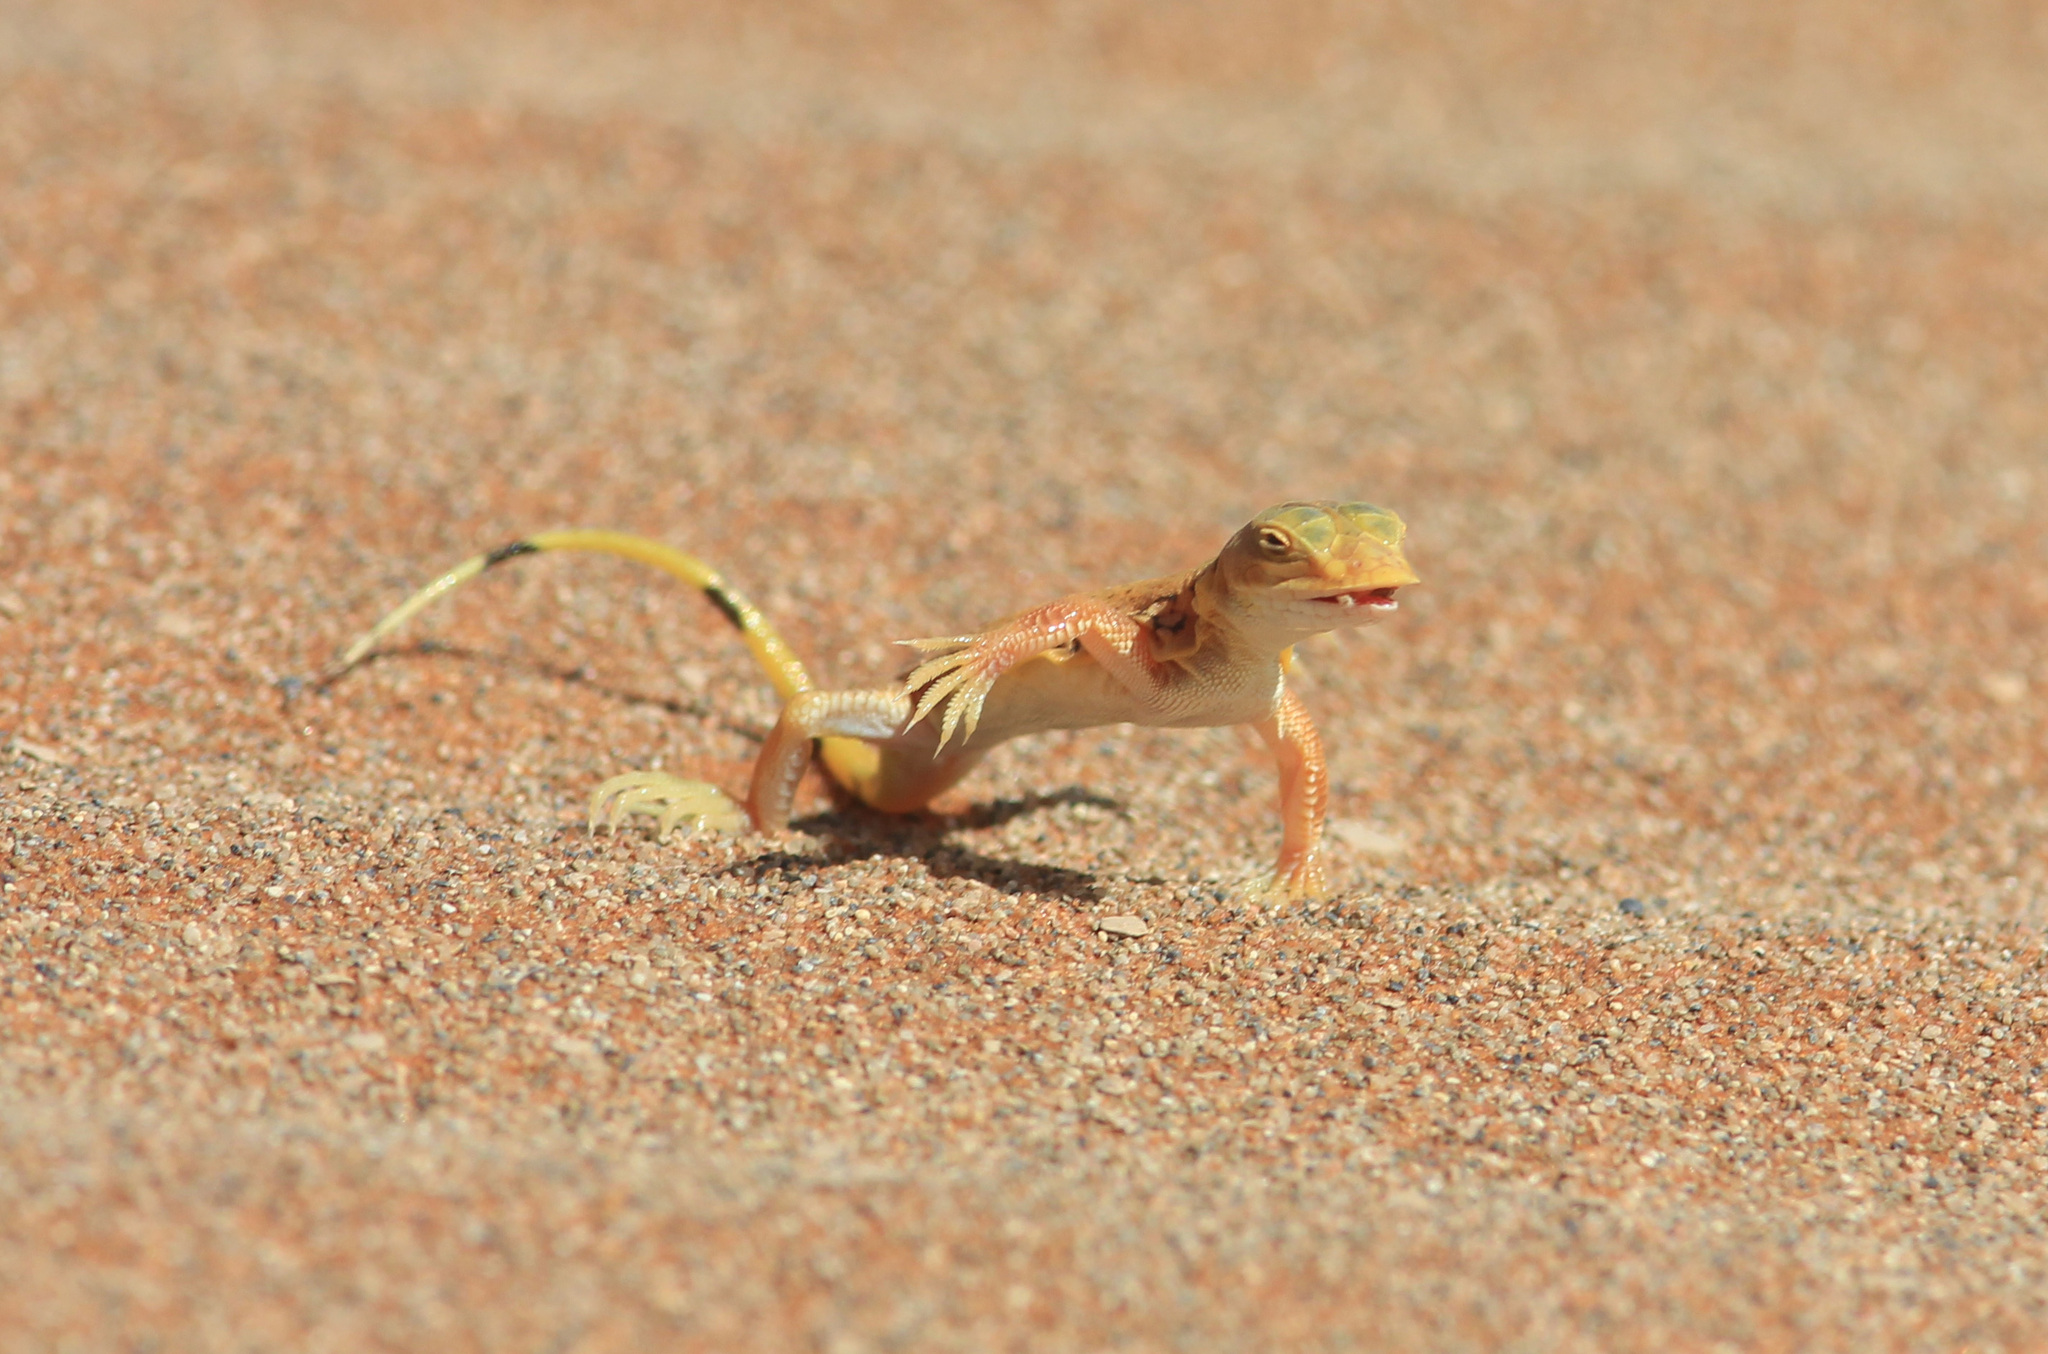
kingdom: Animalia
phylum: Chordata
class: Squamata
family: Lacertidae
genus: Meroles
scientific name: Meroles anchietae
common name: Anchieta’s dune or shovel-snouted lizard
